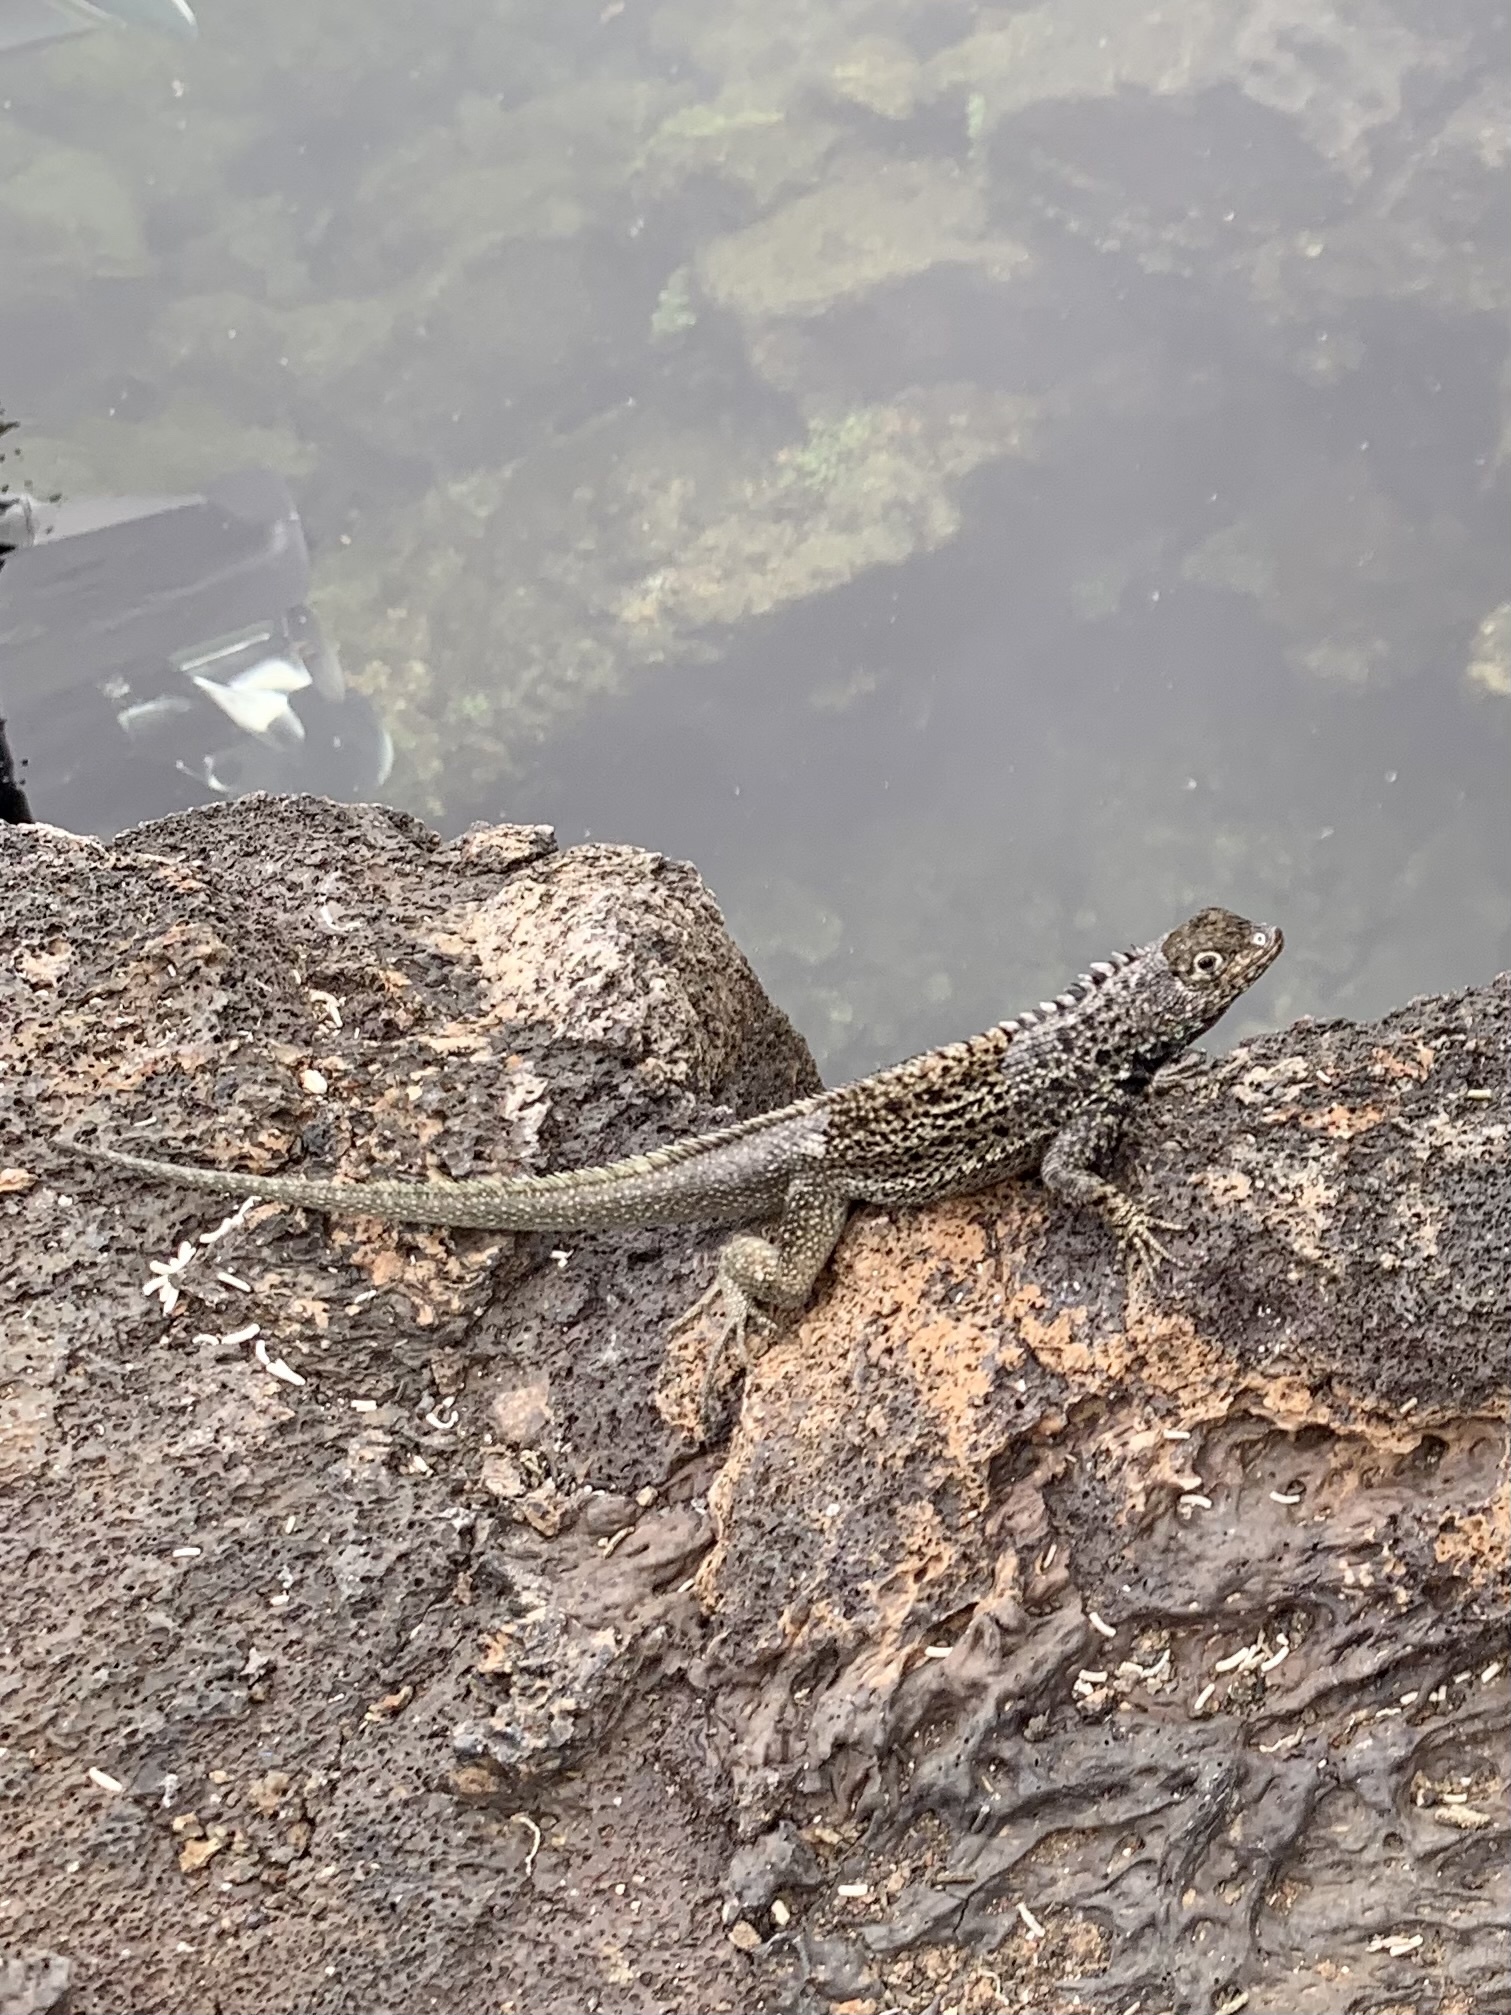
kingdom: Animalia
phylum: Chordata
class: Squamata
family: Tropiduridae
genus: Microlophus
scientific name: Microlophus albemarlensis
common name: Galapagos lava lizard
